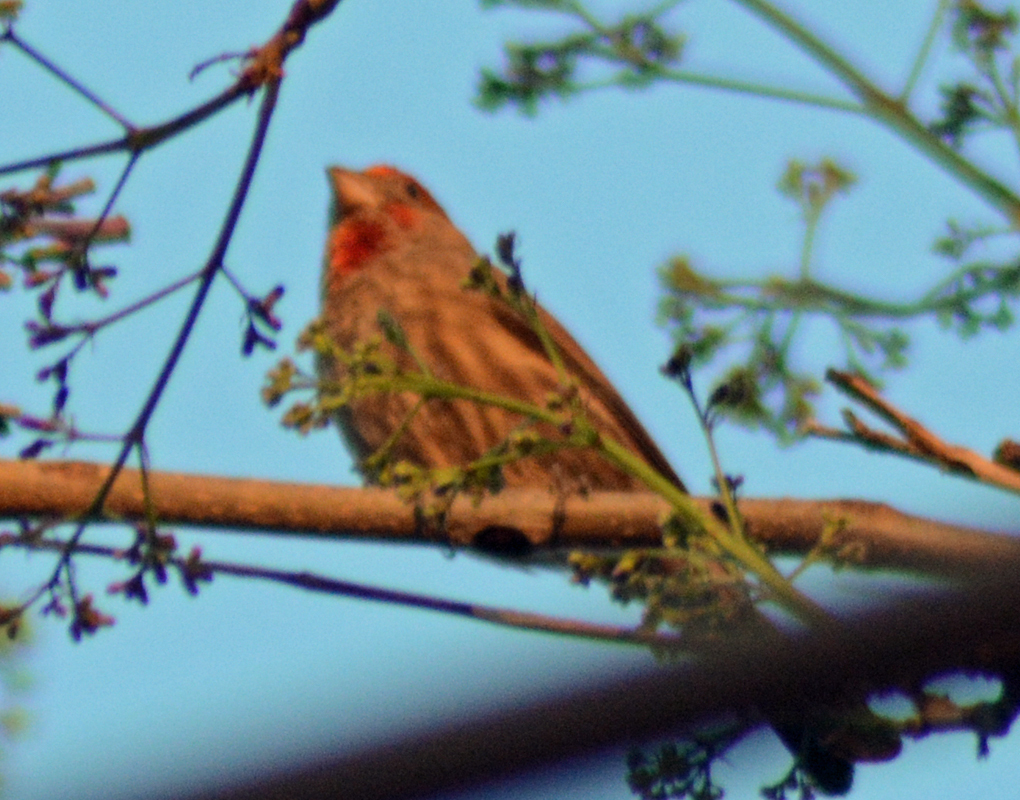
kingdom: Animalia
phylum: Chordata
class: Aves
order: Passeriformes
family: Fringillidae
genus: Haemorhous
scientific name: Haemorhous mexicanus
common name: House finch
